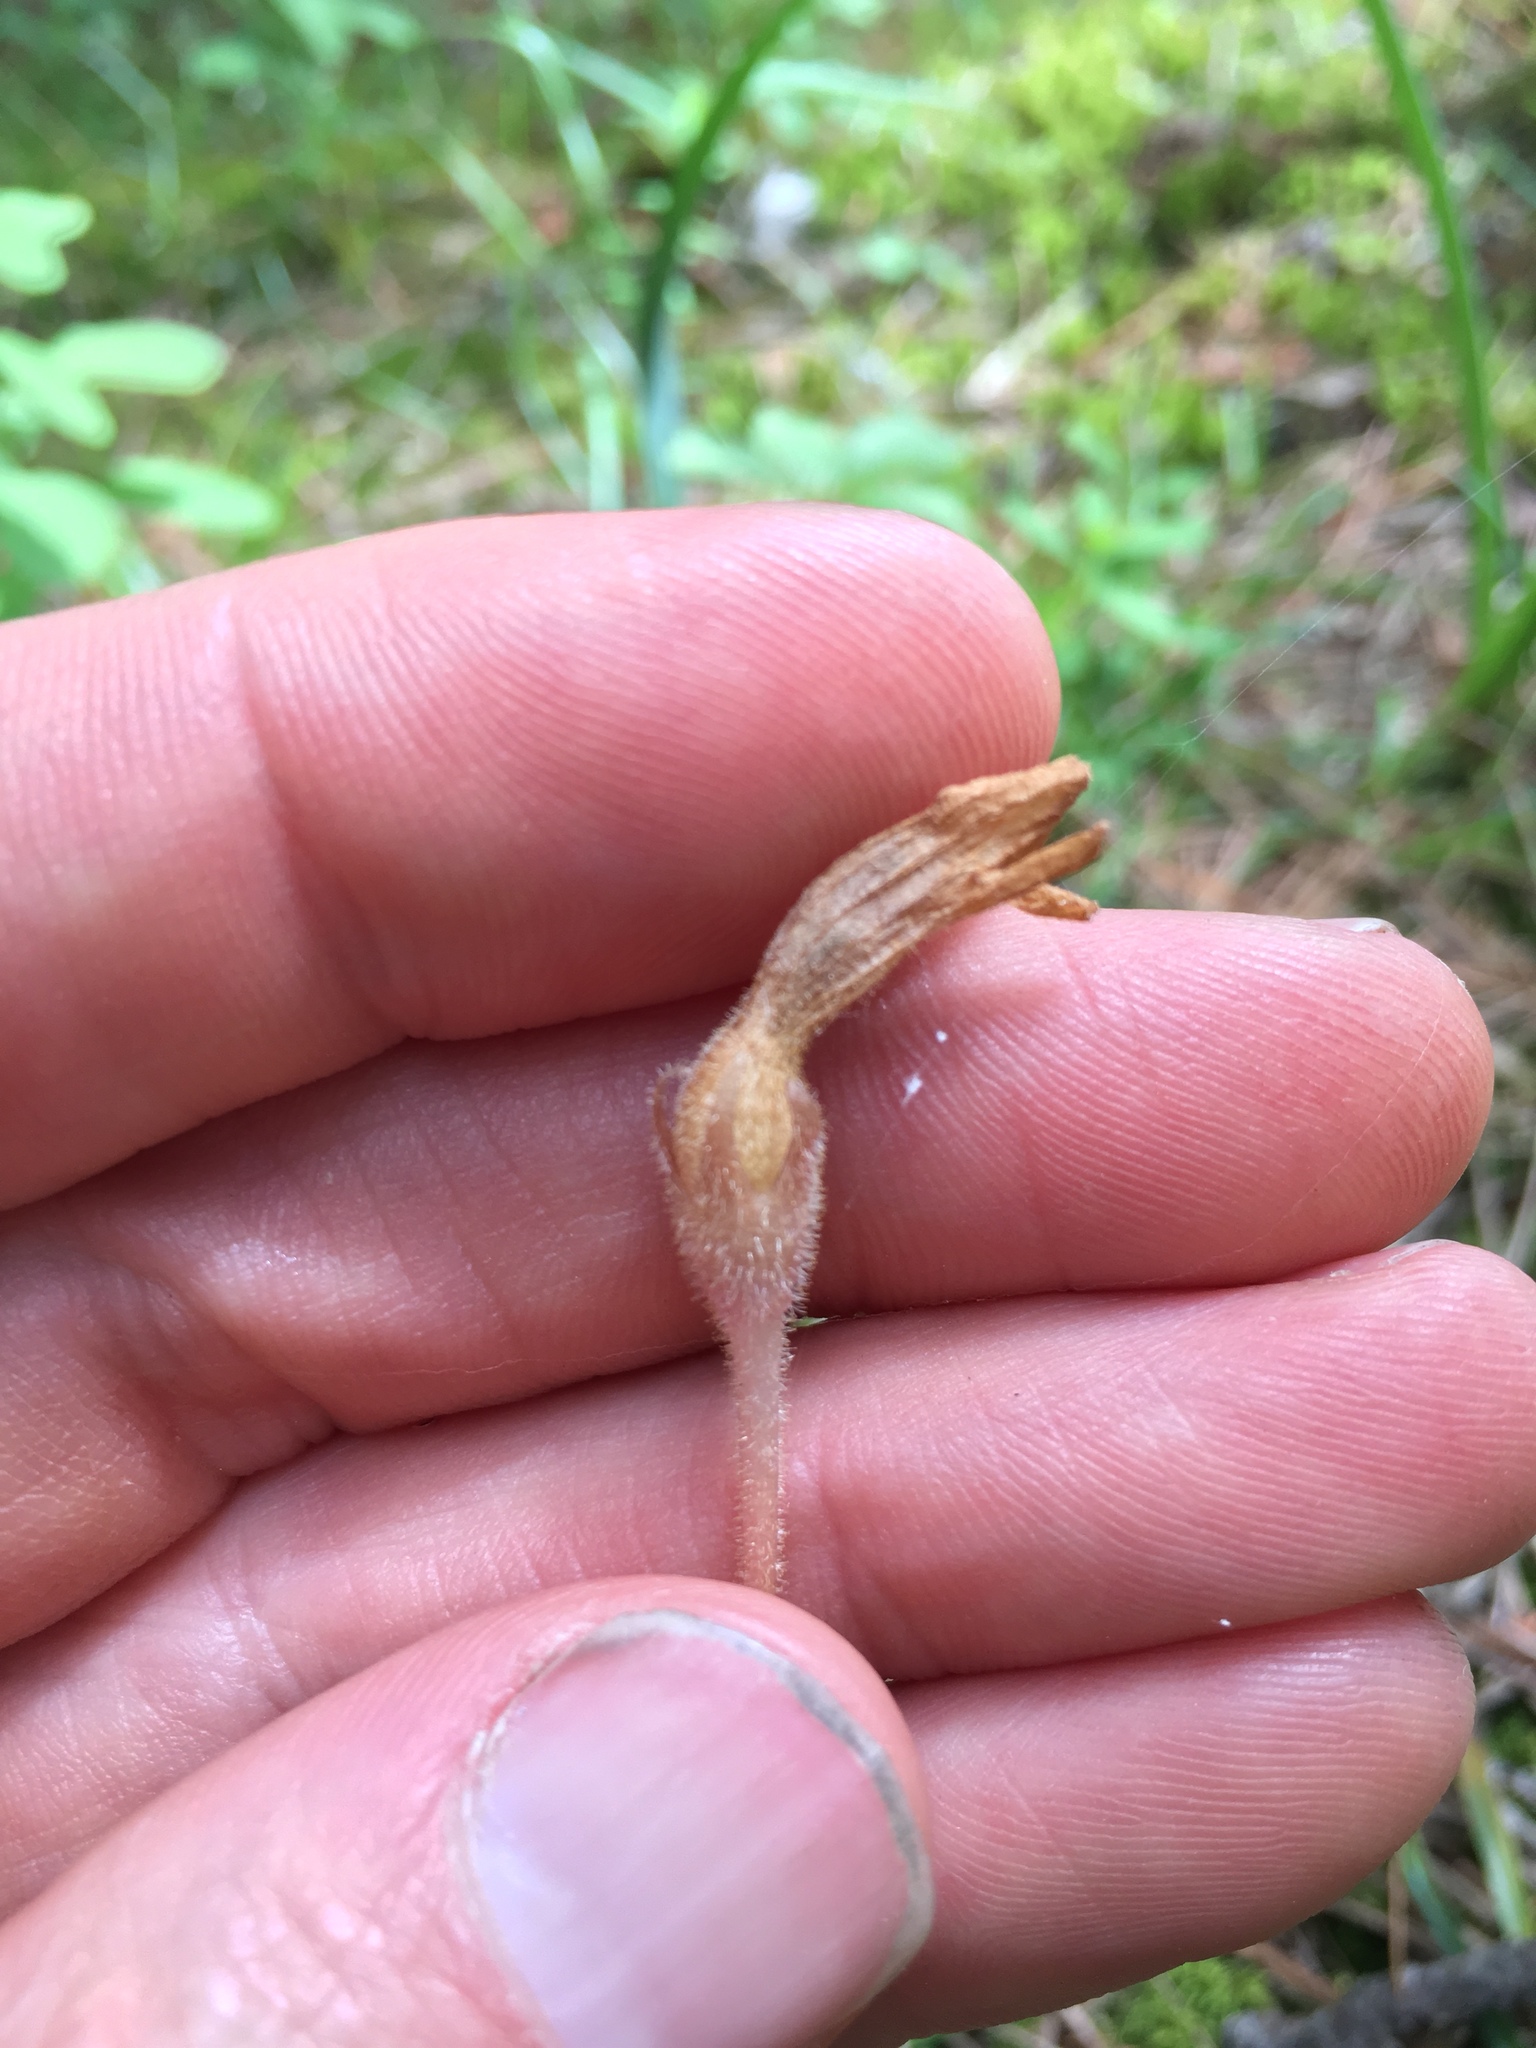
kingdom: Plantae
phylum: Tracheophyta
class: Magnoliopsida
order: Lamiales
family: Orobanchaceae
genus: Aphyllon
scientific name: Aphyllon uniflorum
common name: One-flowered broomrape
